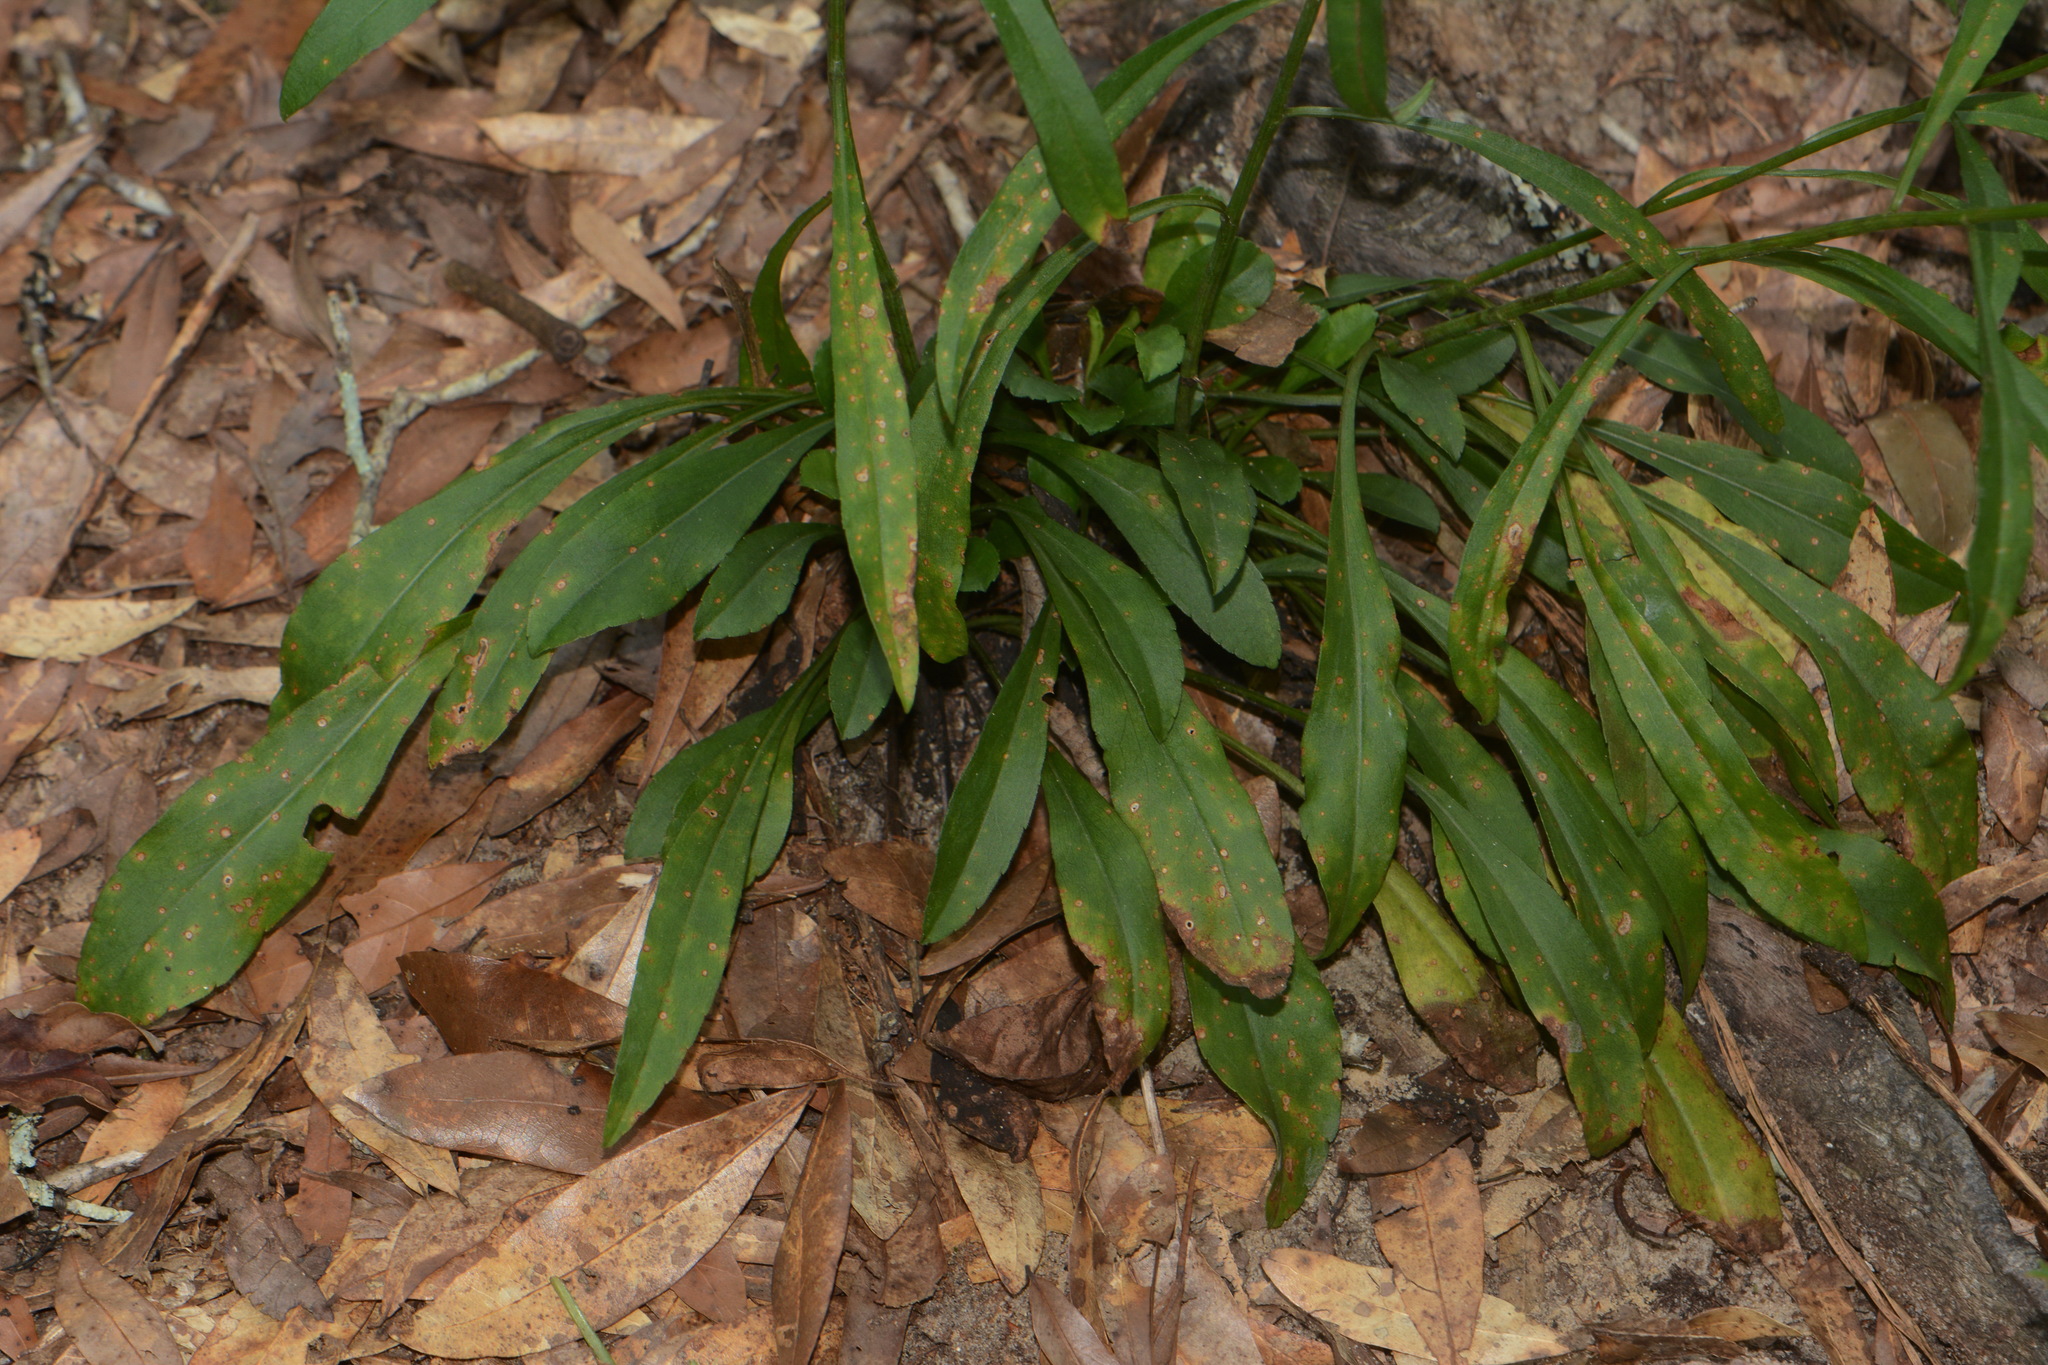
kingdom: Plantae
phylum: Tracheophyta
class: Magnoliopsida
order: Asterales
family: Asteraceae
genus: Solidago
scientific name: Solidago arenicola
